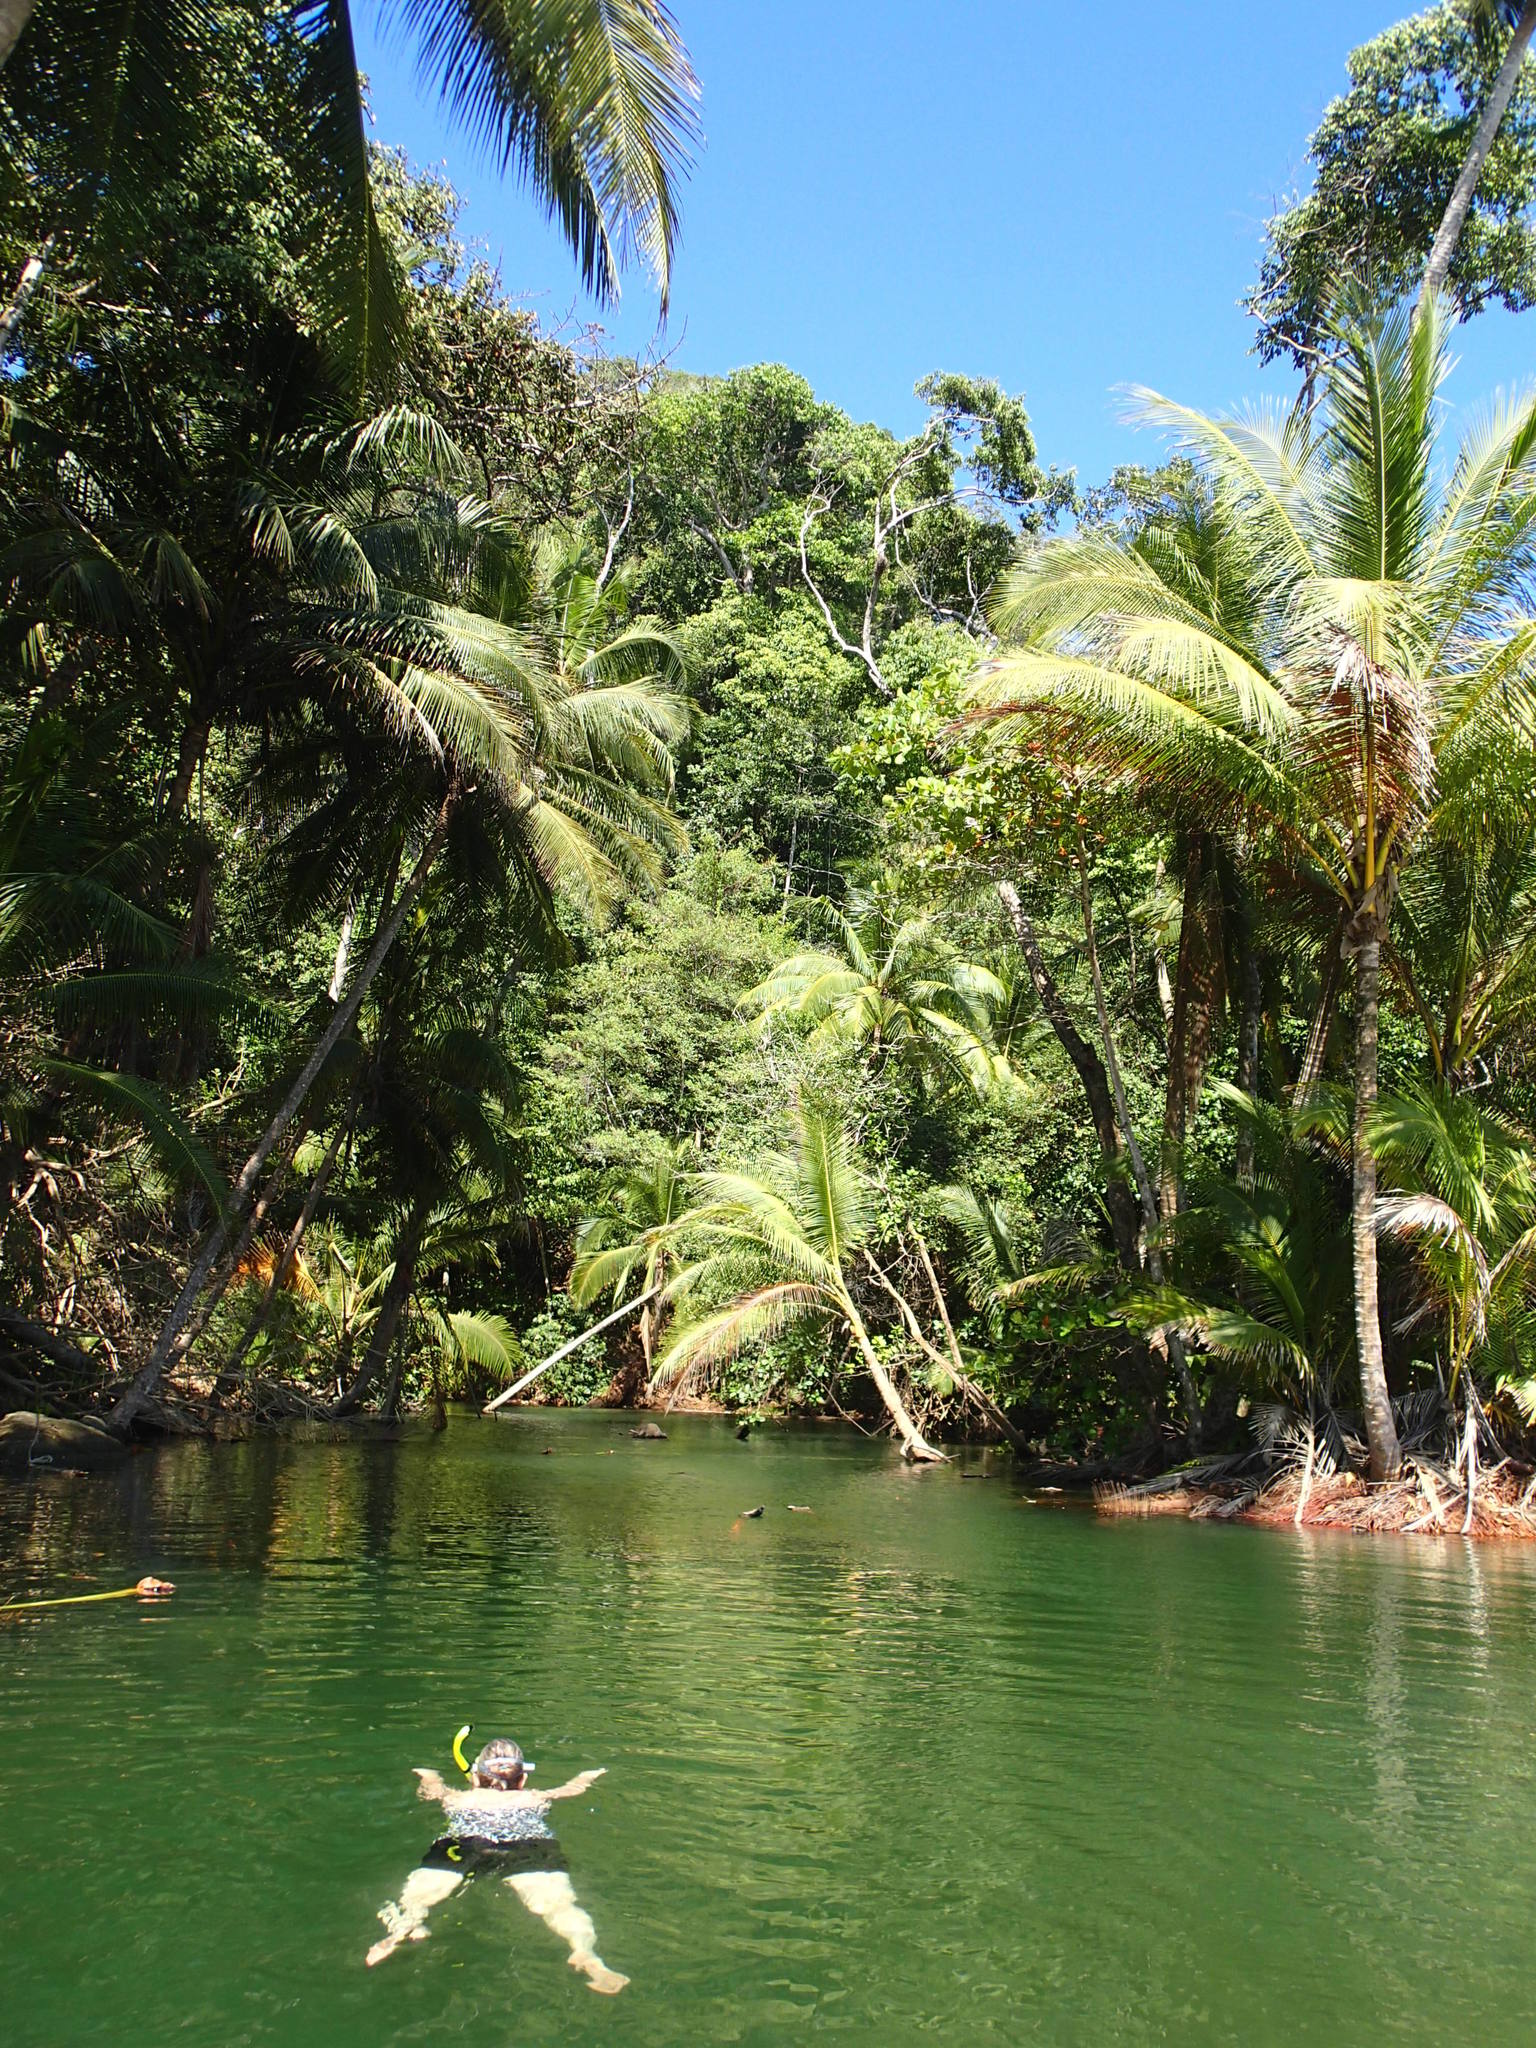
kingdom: Animalia
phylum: Chordata
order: Mugiliformes
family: Mugilidae
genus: Dajaus
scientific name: Dajaus monticola
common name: Mountain mullet
